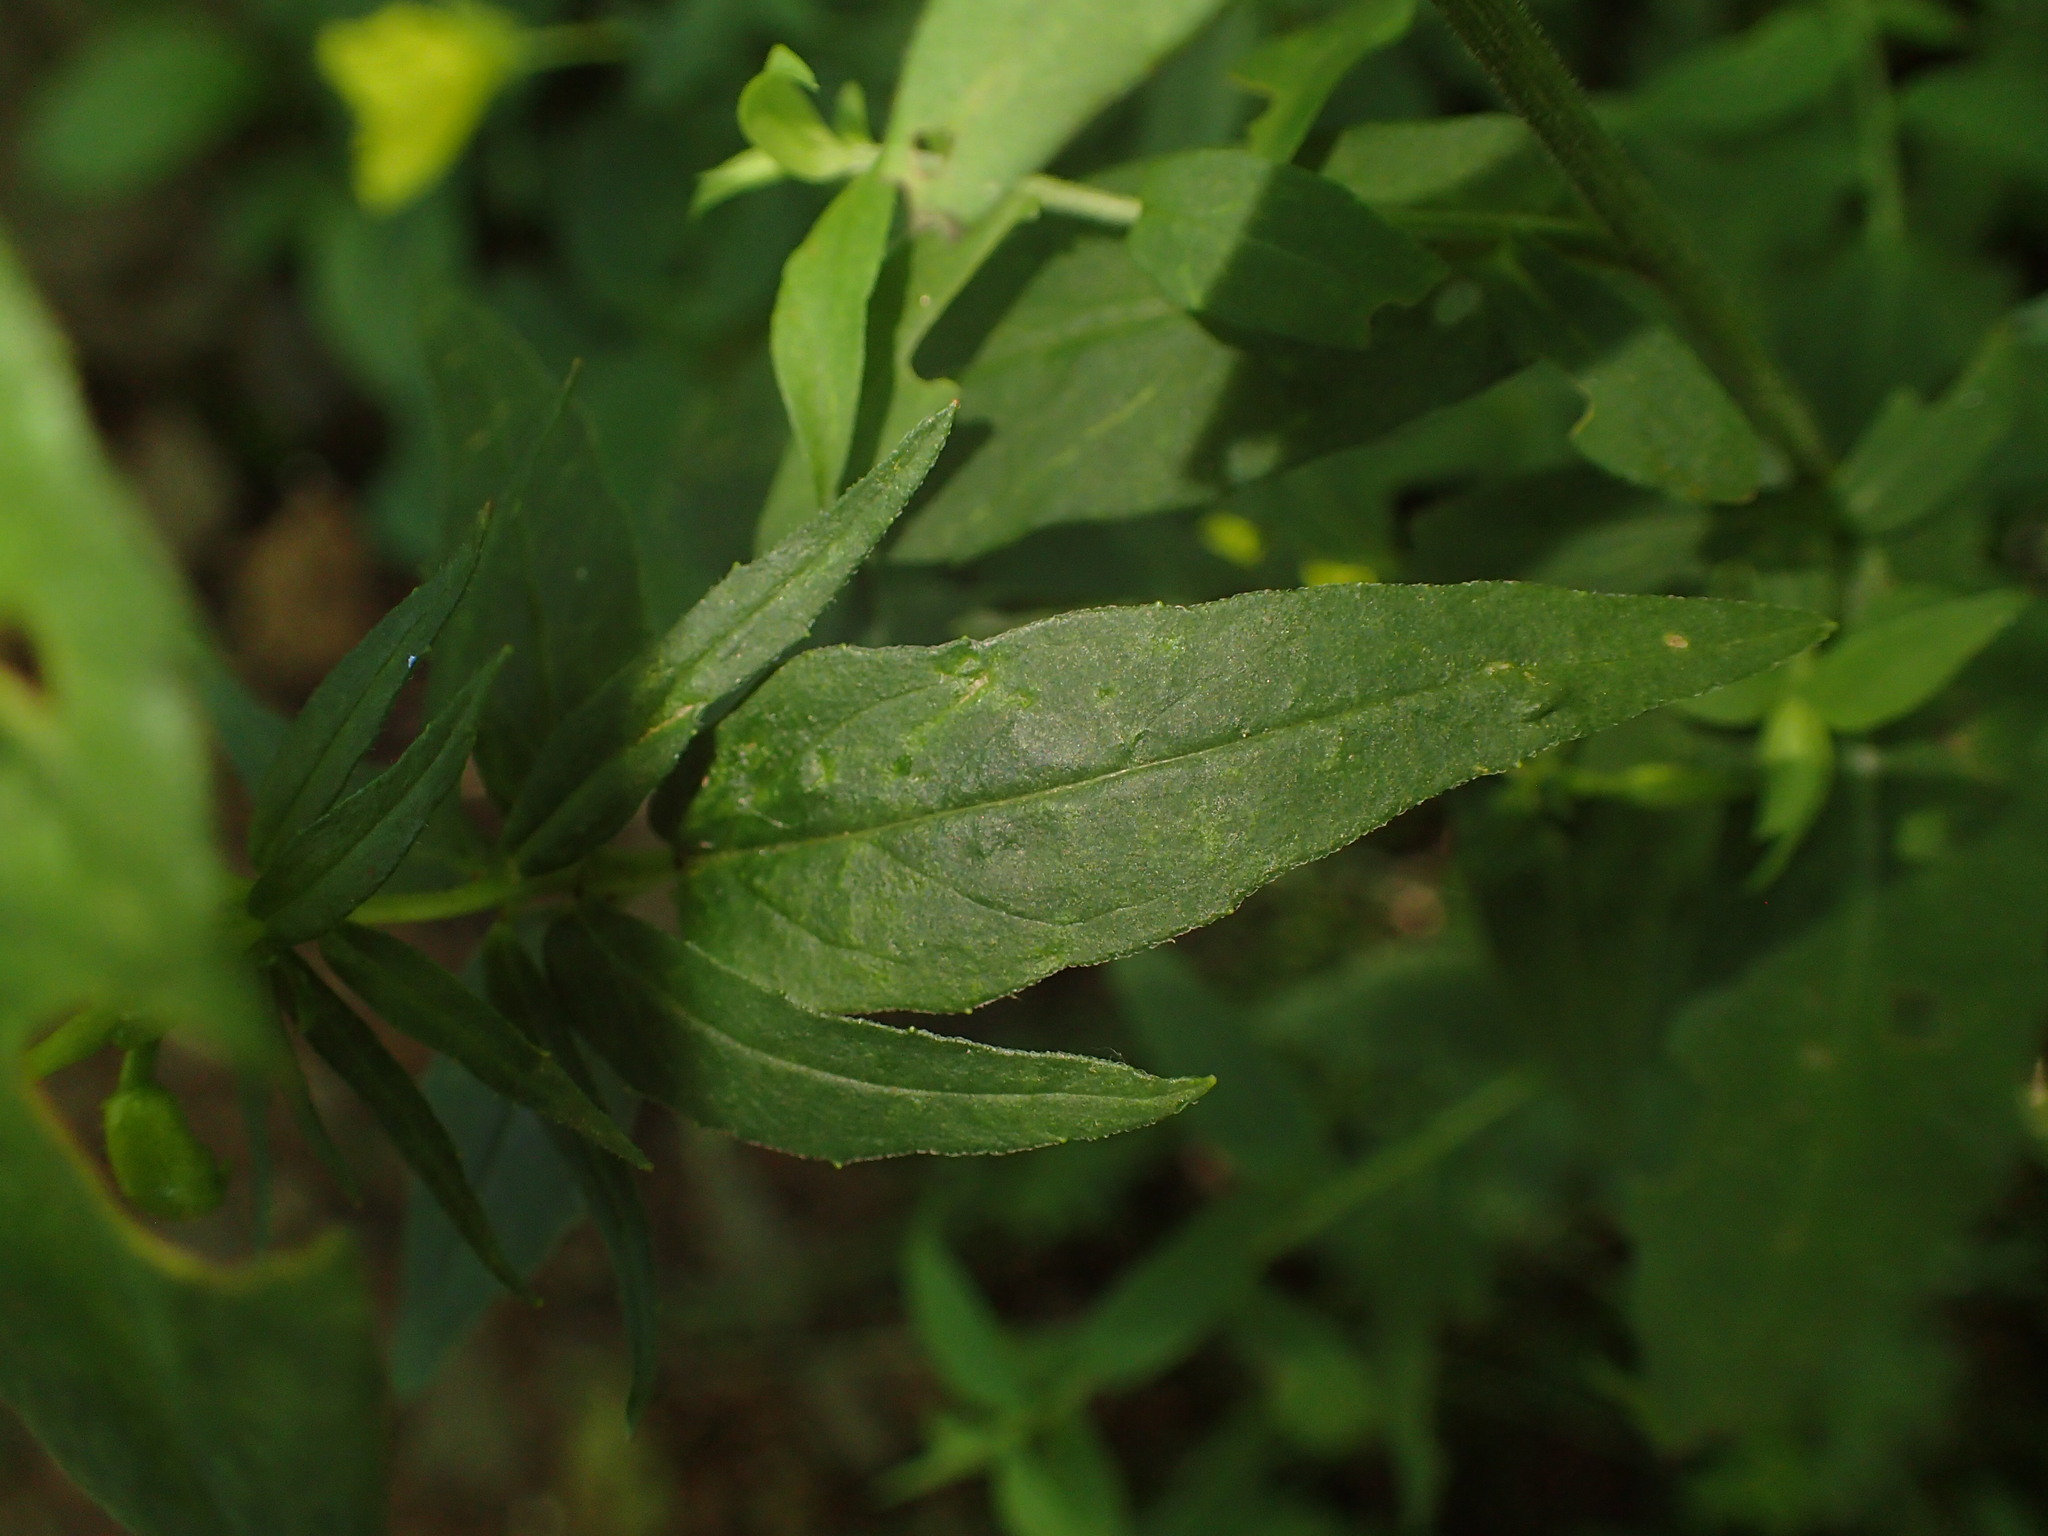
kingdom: Plantae
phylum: Tracheophyta
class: Magnoliopsida
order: Myrtales
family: Onagraceae
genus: Oenothera
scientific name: Oenothera fruticosa
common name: Southern sundrops
